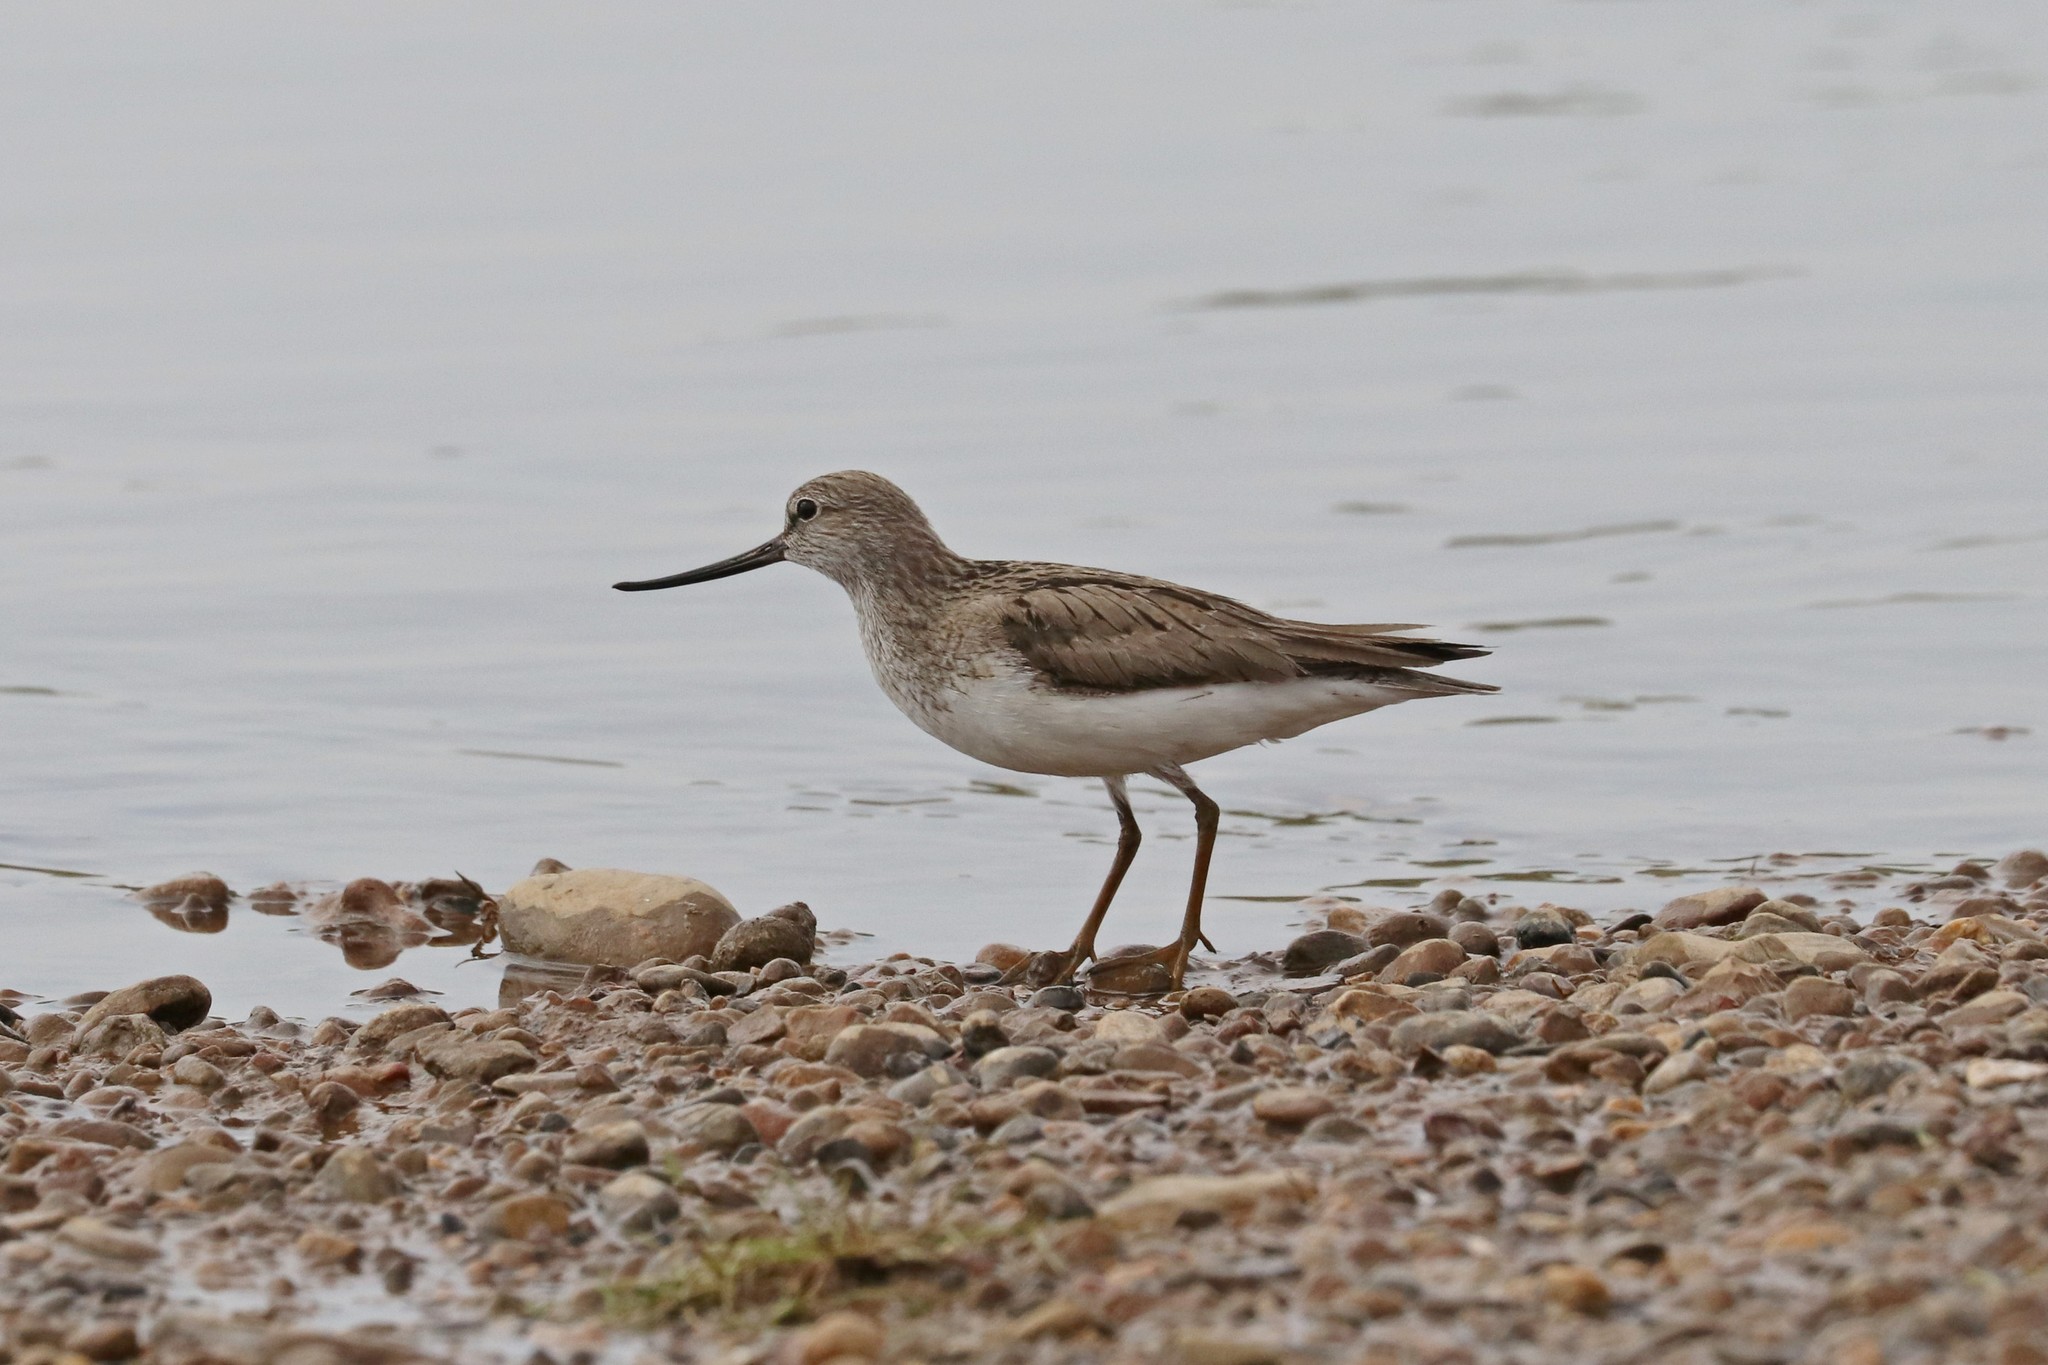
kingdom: Animalia
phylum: Chordata
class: Aves
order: Charadriiformes
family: Scolopacidae
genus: Xenus
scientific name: Xenus cinereus
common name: Terek sandpiper
